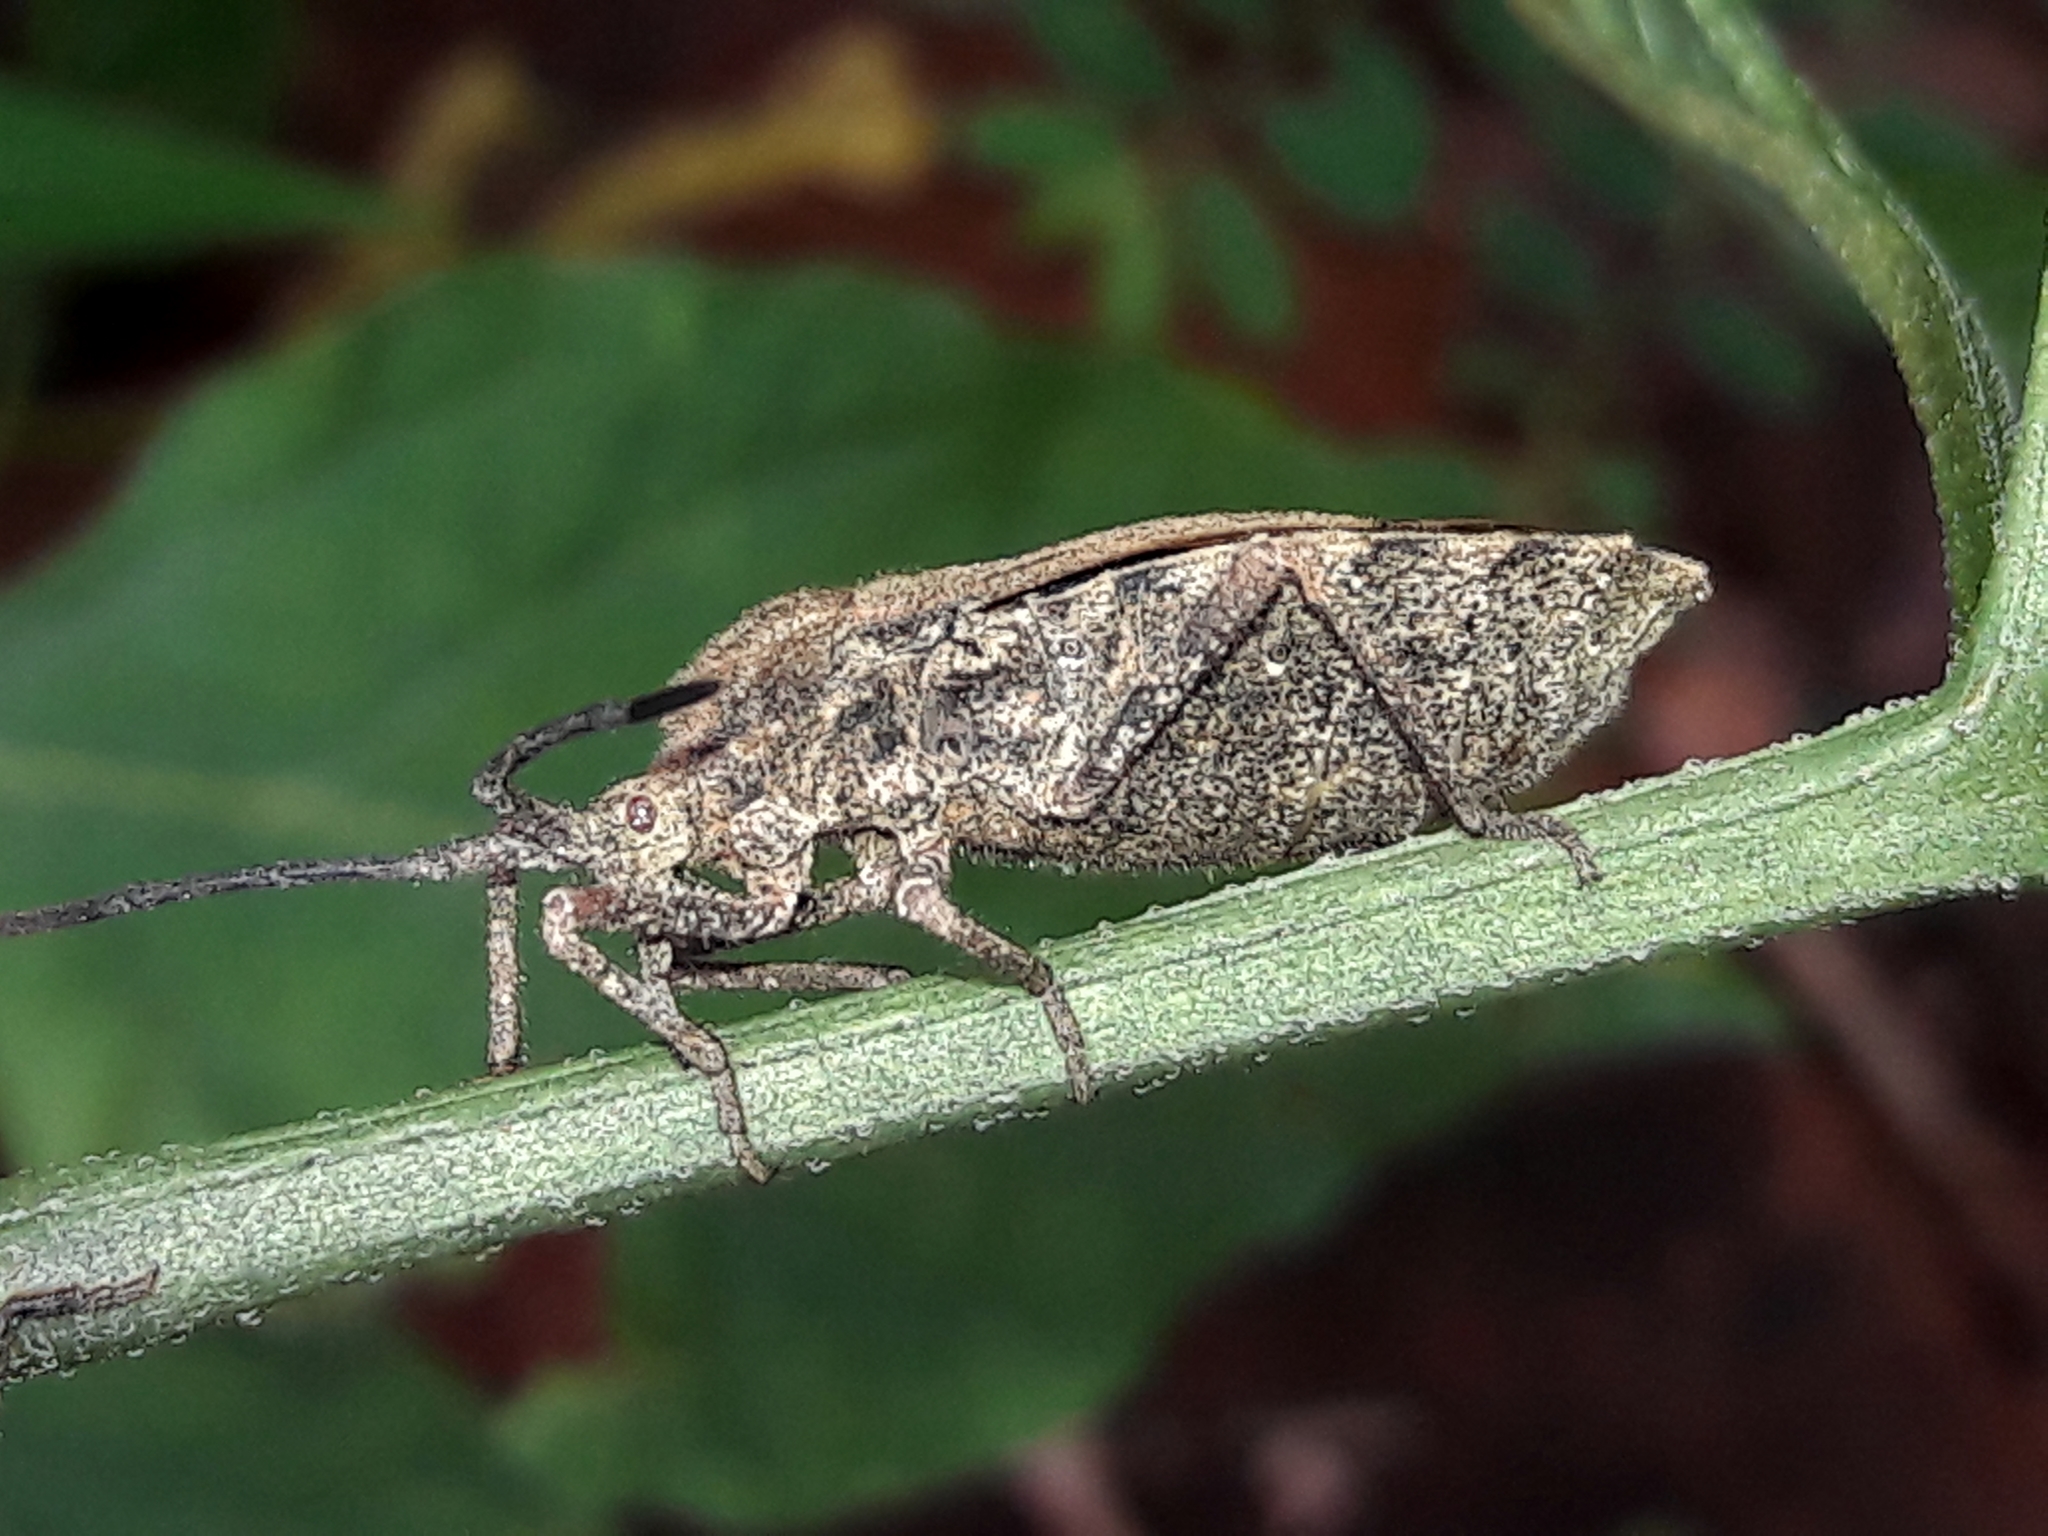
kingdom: Animalia
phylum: Arthropoda
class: Insecta
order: Hemiptera
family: Coreidae
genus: Spartocera
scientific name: Spartocera fusca
